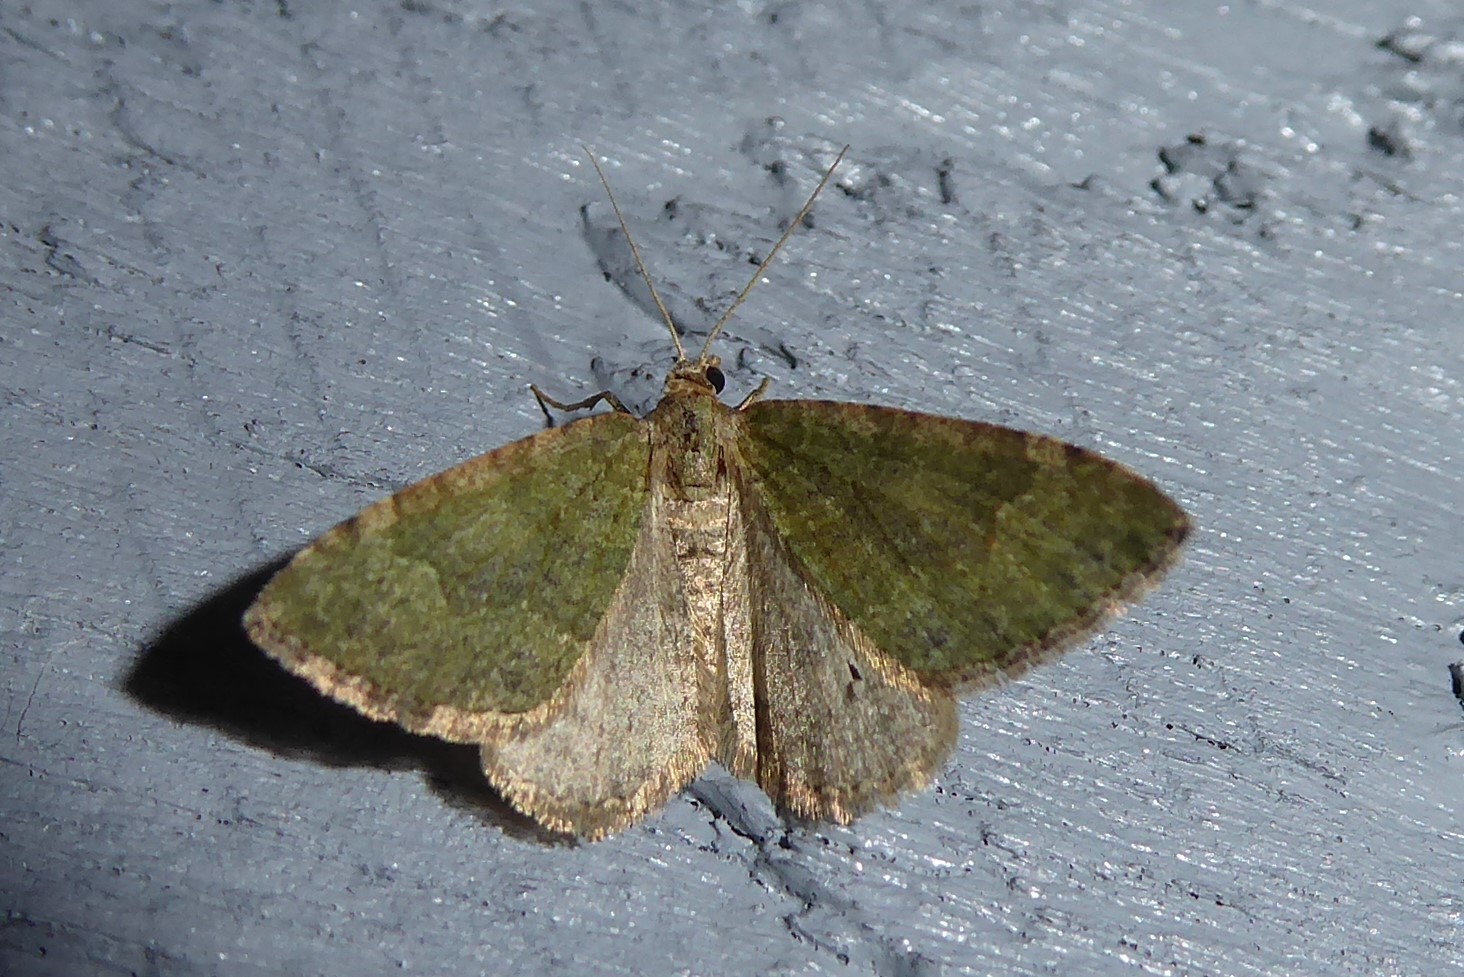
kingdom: Animalia
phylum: Arthropoda
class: Insecta
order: Lepidoptera
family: Geometridae
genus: Epyaxa
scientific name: Epyaxa rosearia
